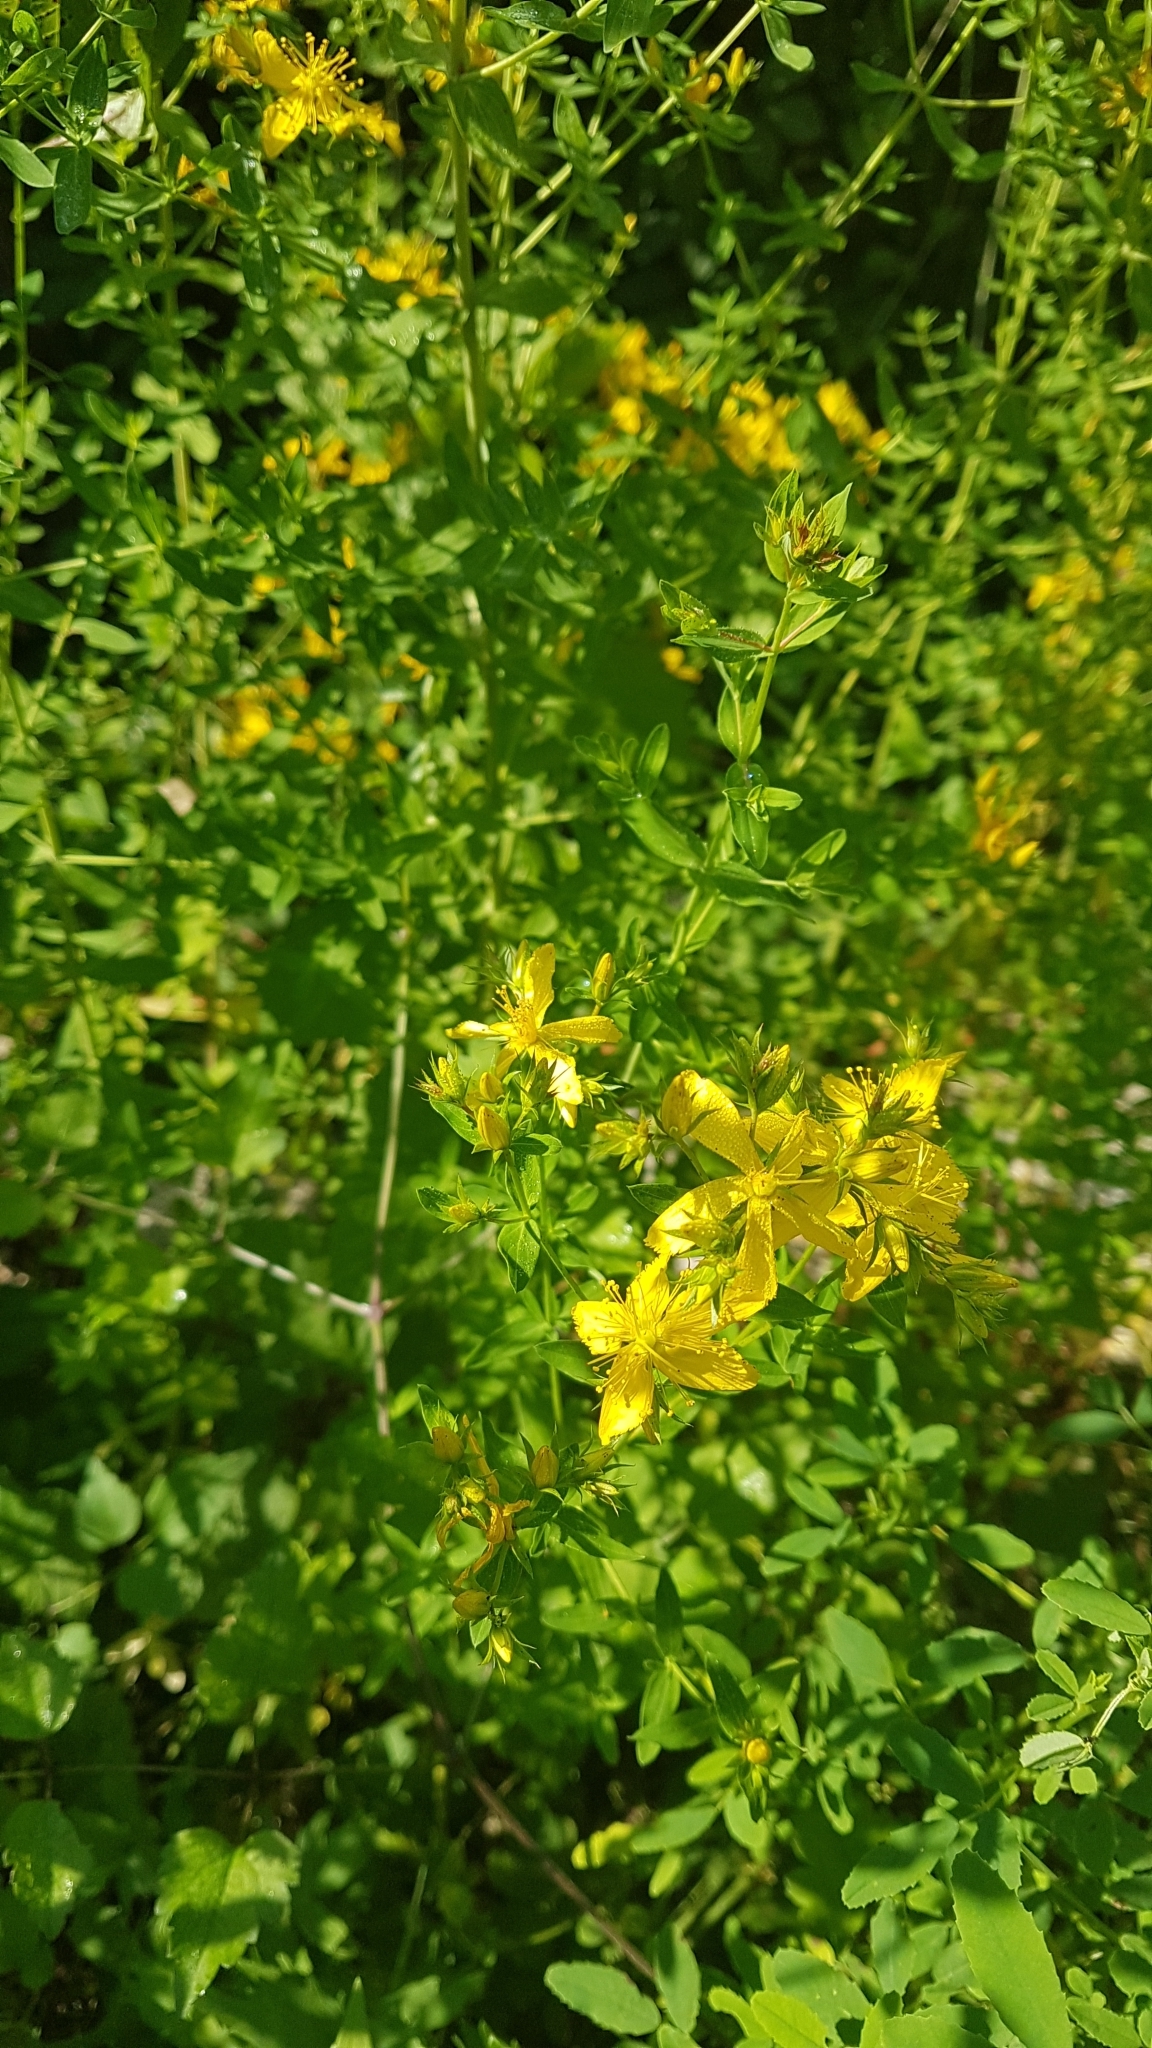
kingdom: Plantae
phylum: Tracheophyta
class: Magnoliopsida
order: Malpighiales
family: Hypericaceae
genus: Hypericum
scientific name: Hypericum perforatum
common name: Common st. johnswort
